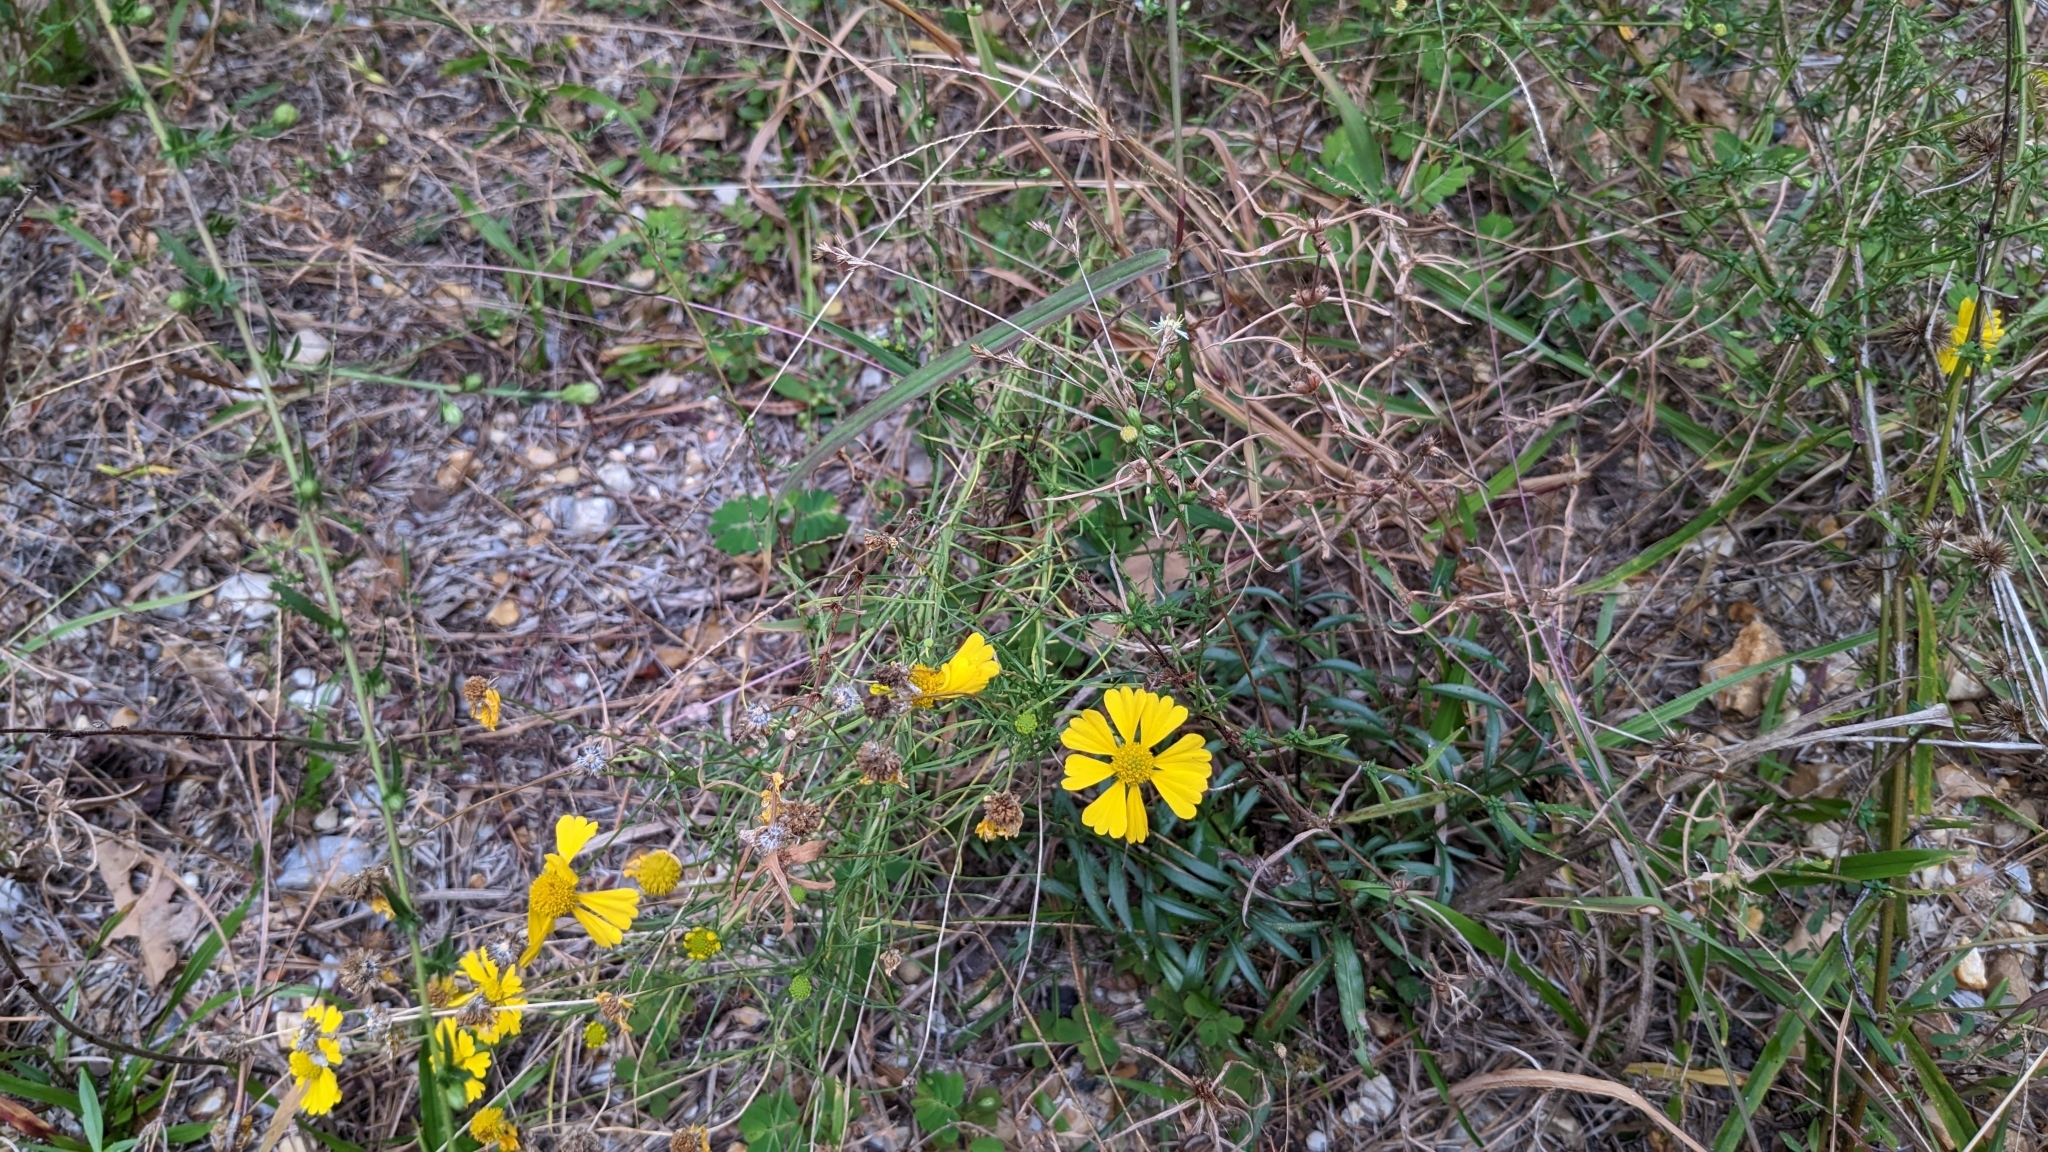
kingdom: Plantae
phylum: Tracheophyta
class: Magnoliopsida
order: Asterales
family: Asteraceae
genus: Helenium
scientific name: Helenium amarum
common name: Bitter sneezeweed
